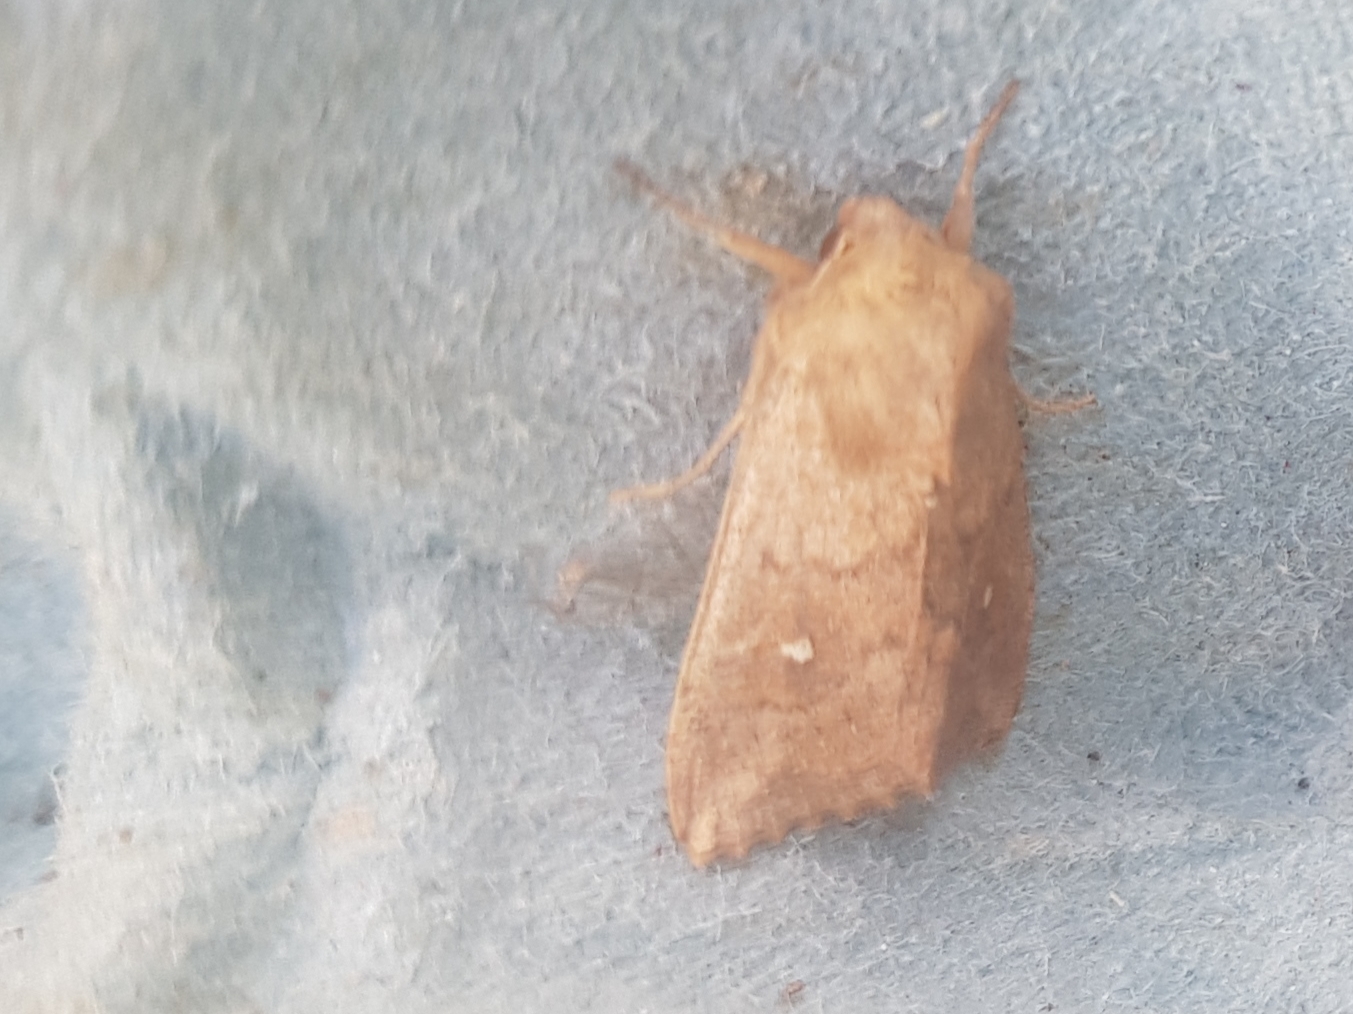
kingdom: Animalia
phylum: Arthropoda
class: Insecta
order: Lepidoptera
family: Noctuidae
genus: Mythimna
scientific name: Mythimna albipuncta
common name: White-point
